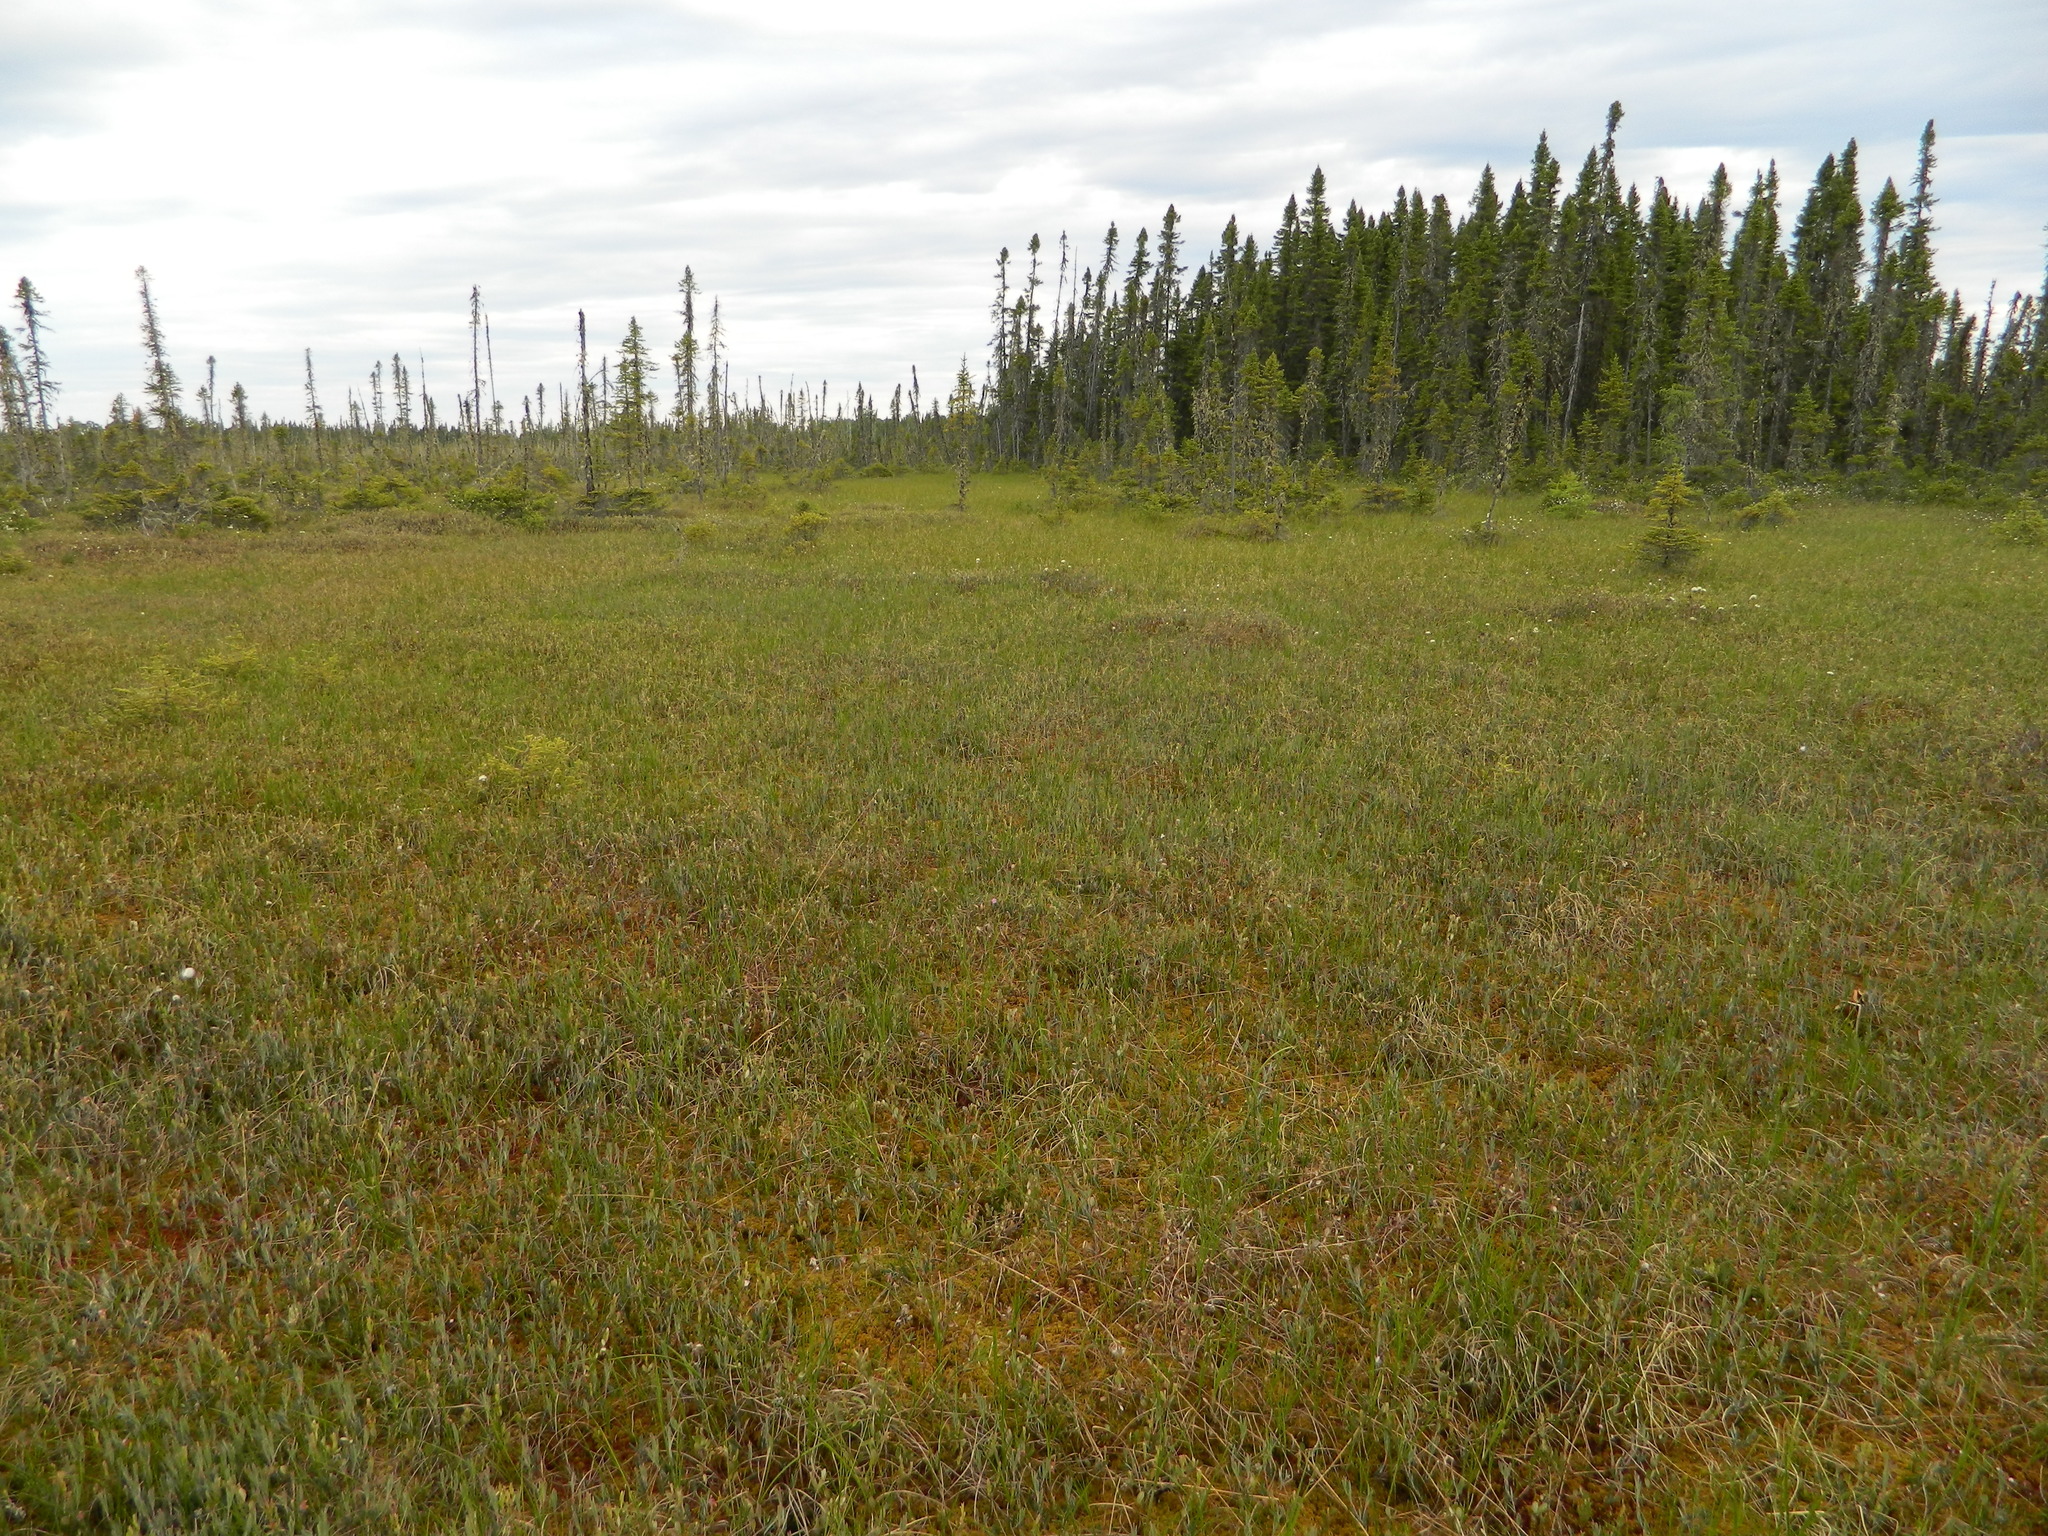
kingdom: Plantae
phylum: Tracheophyta
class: Pinopsida
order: Pinales
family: Pinaceae
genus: Picea
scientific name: Picea mariana
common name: Black spruce
